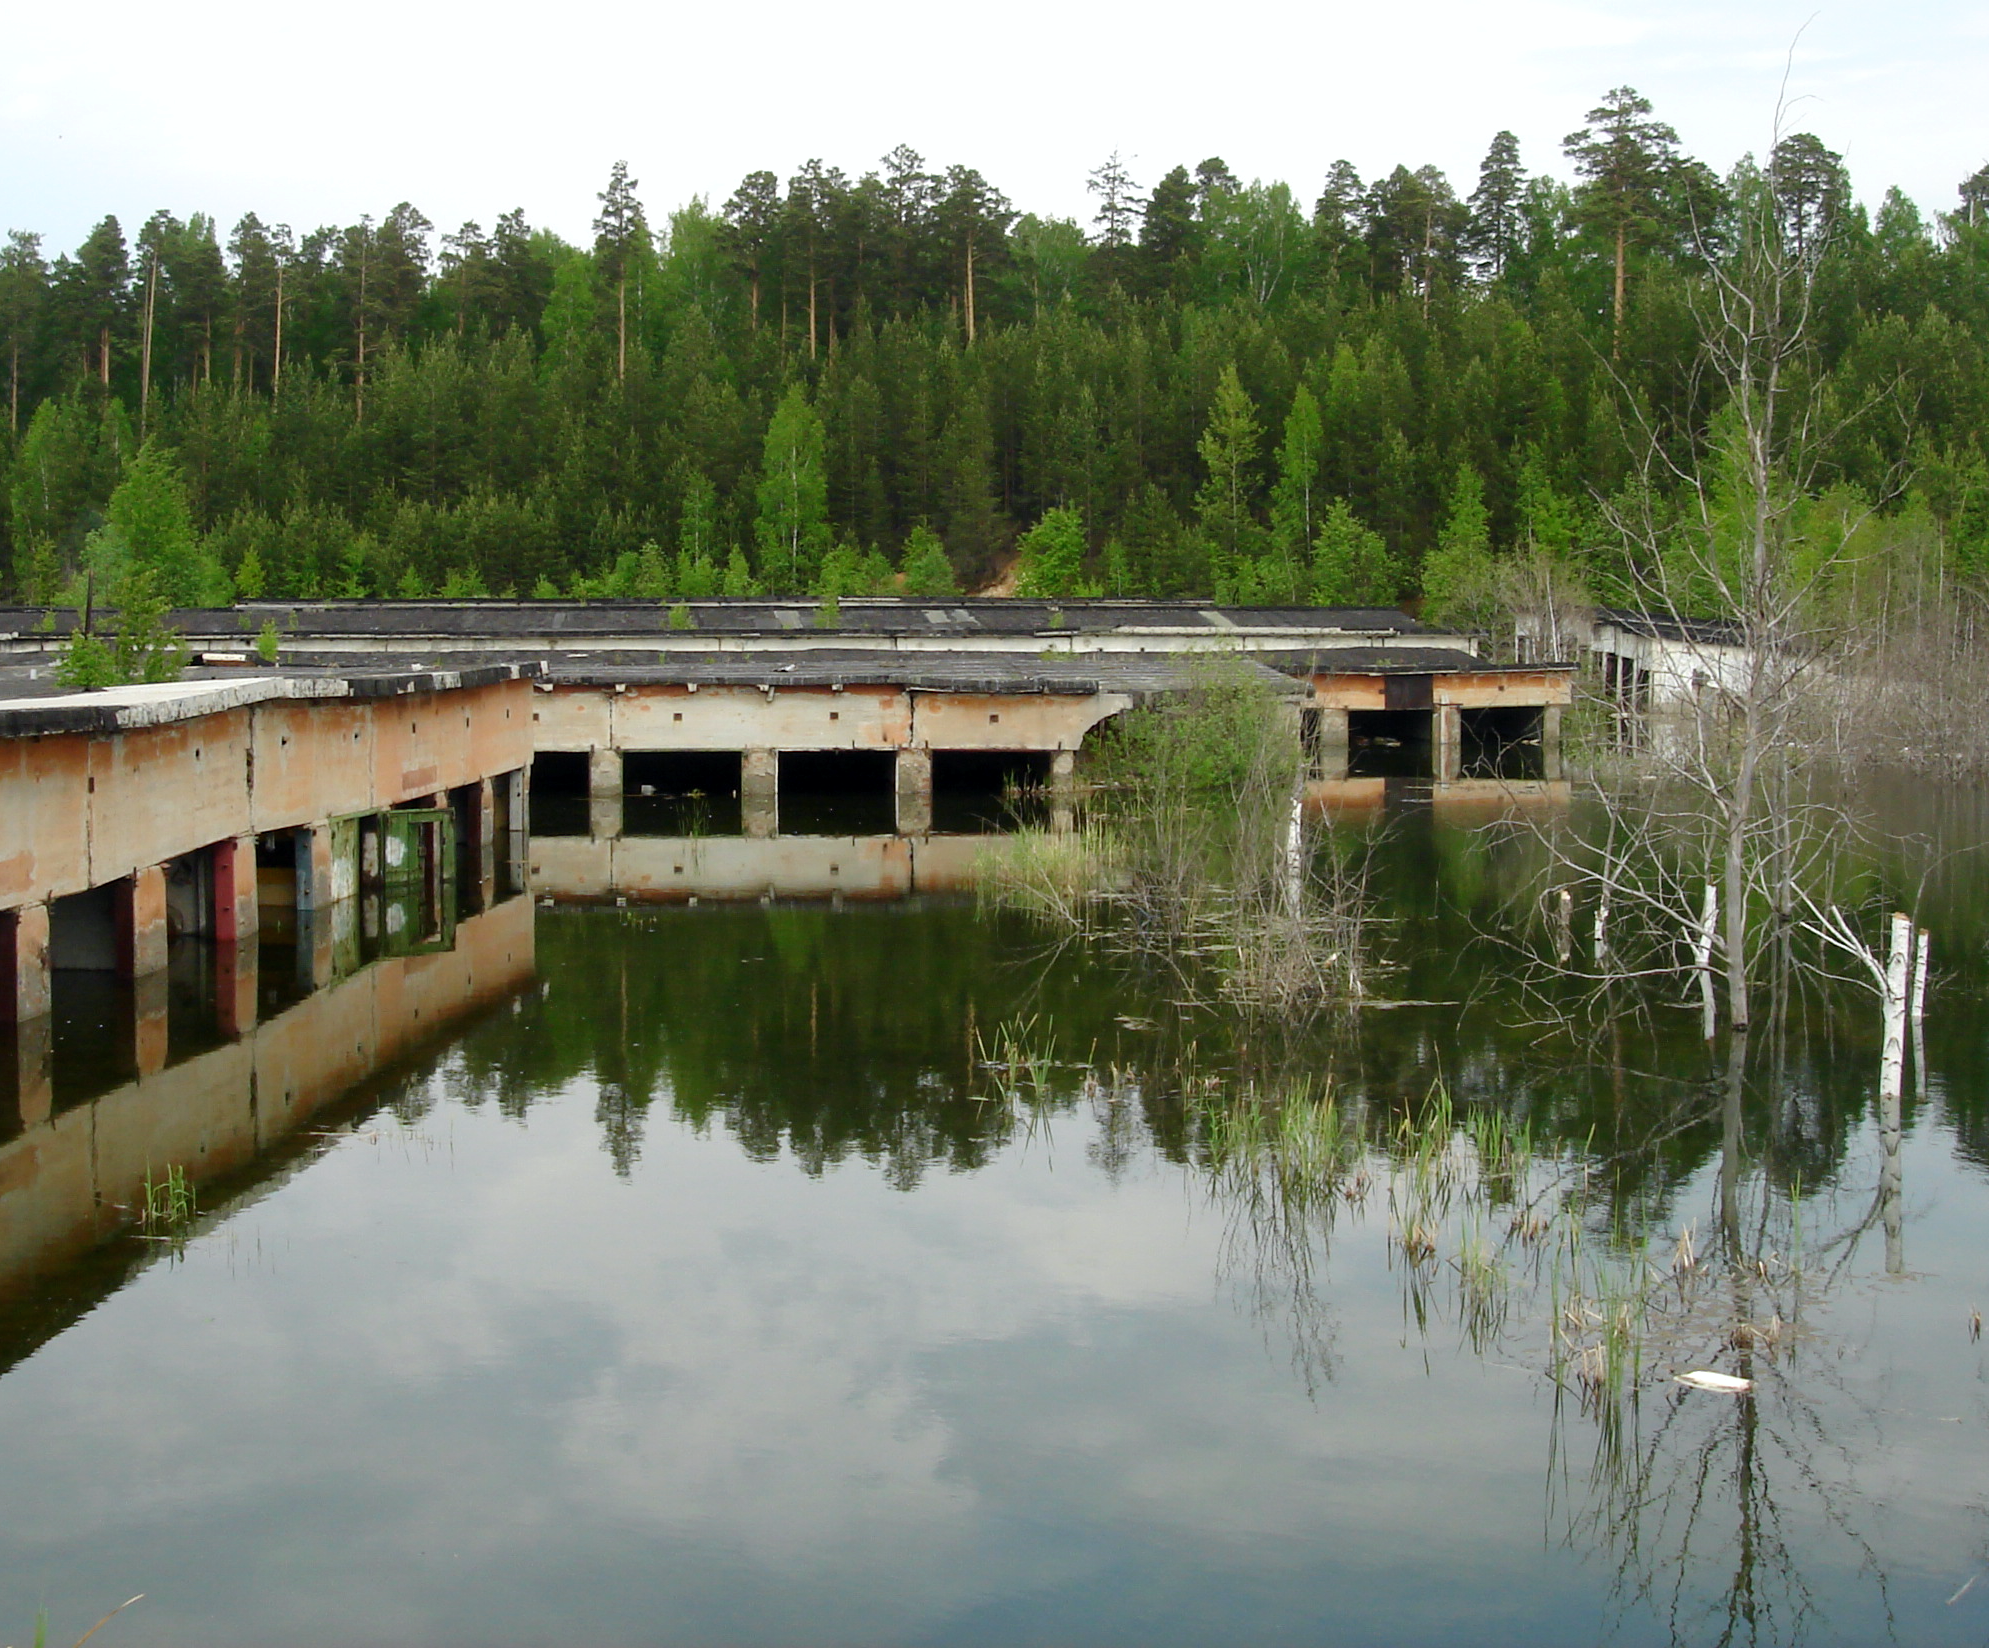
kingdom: Plantae
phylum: Tracheophyta
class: Liliopsida
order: Poales
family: Typhaceae
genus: Typha
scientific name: Typha angustifolia
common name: Lesser bulrush
